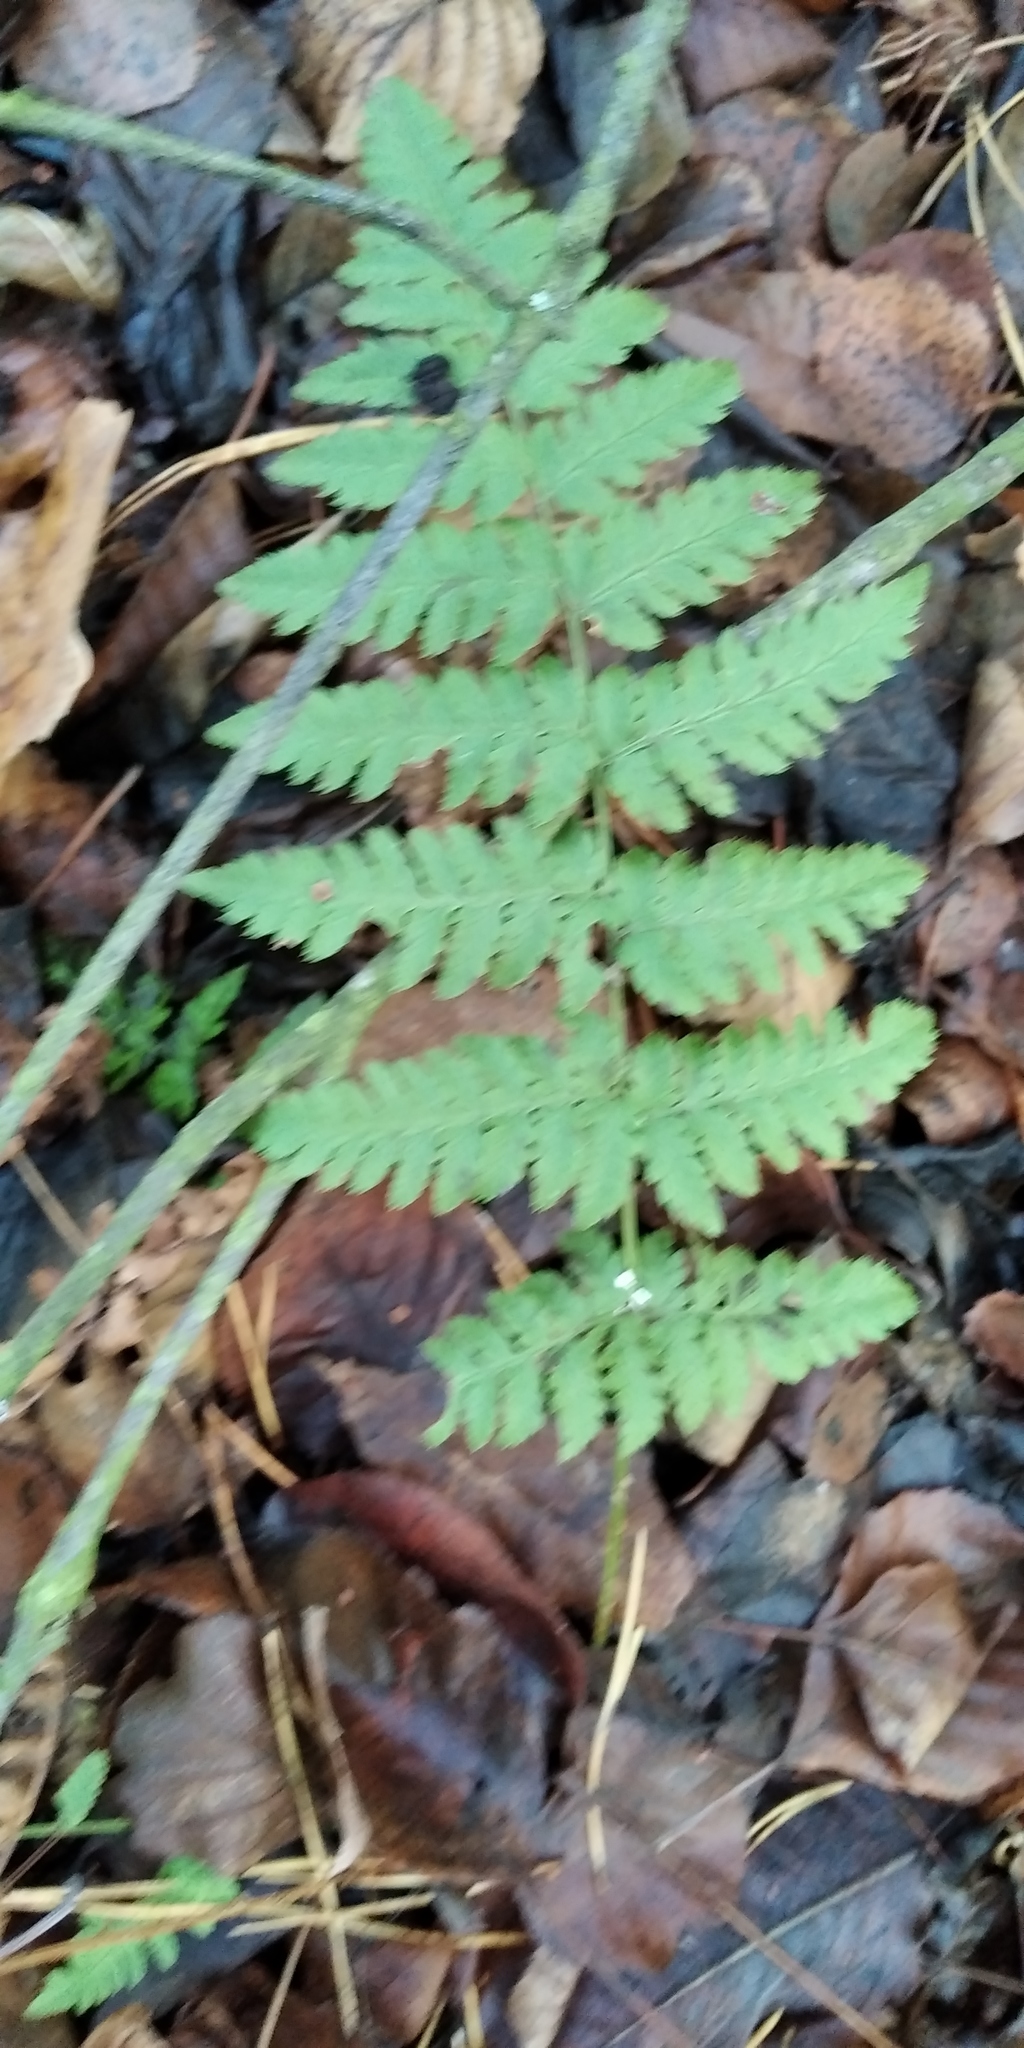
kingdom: Plantae
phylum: Tracheophyta
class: Polypodiopsida
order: Polypodiales
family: Dryopteridaceae
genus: Dryopteris
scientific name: Dryopteris carthusiana
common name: Narrow buckler-fern
